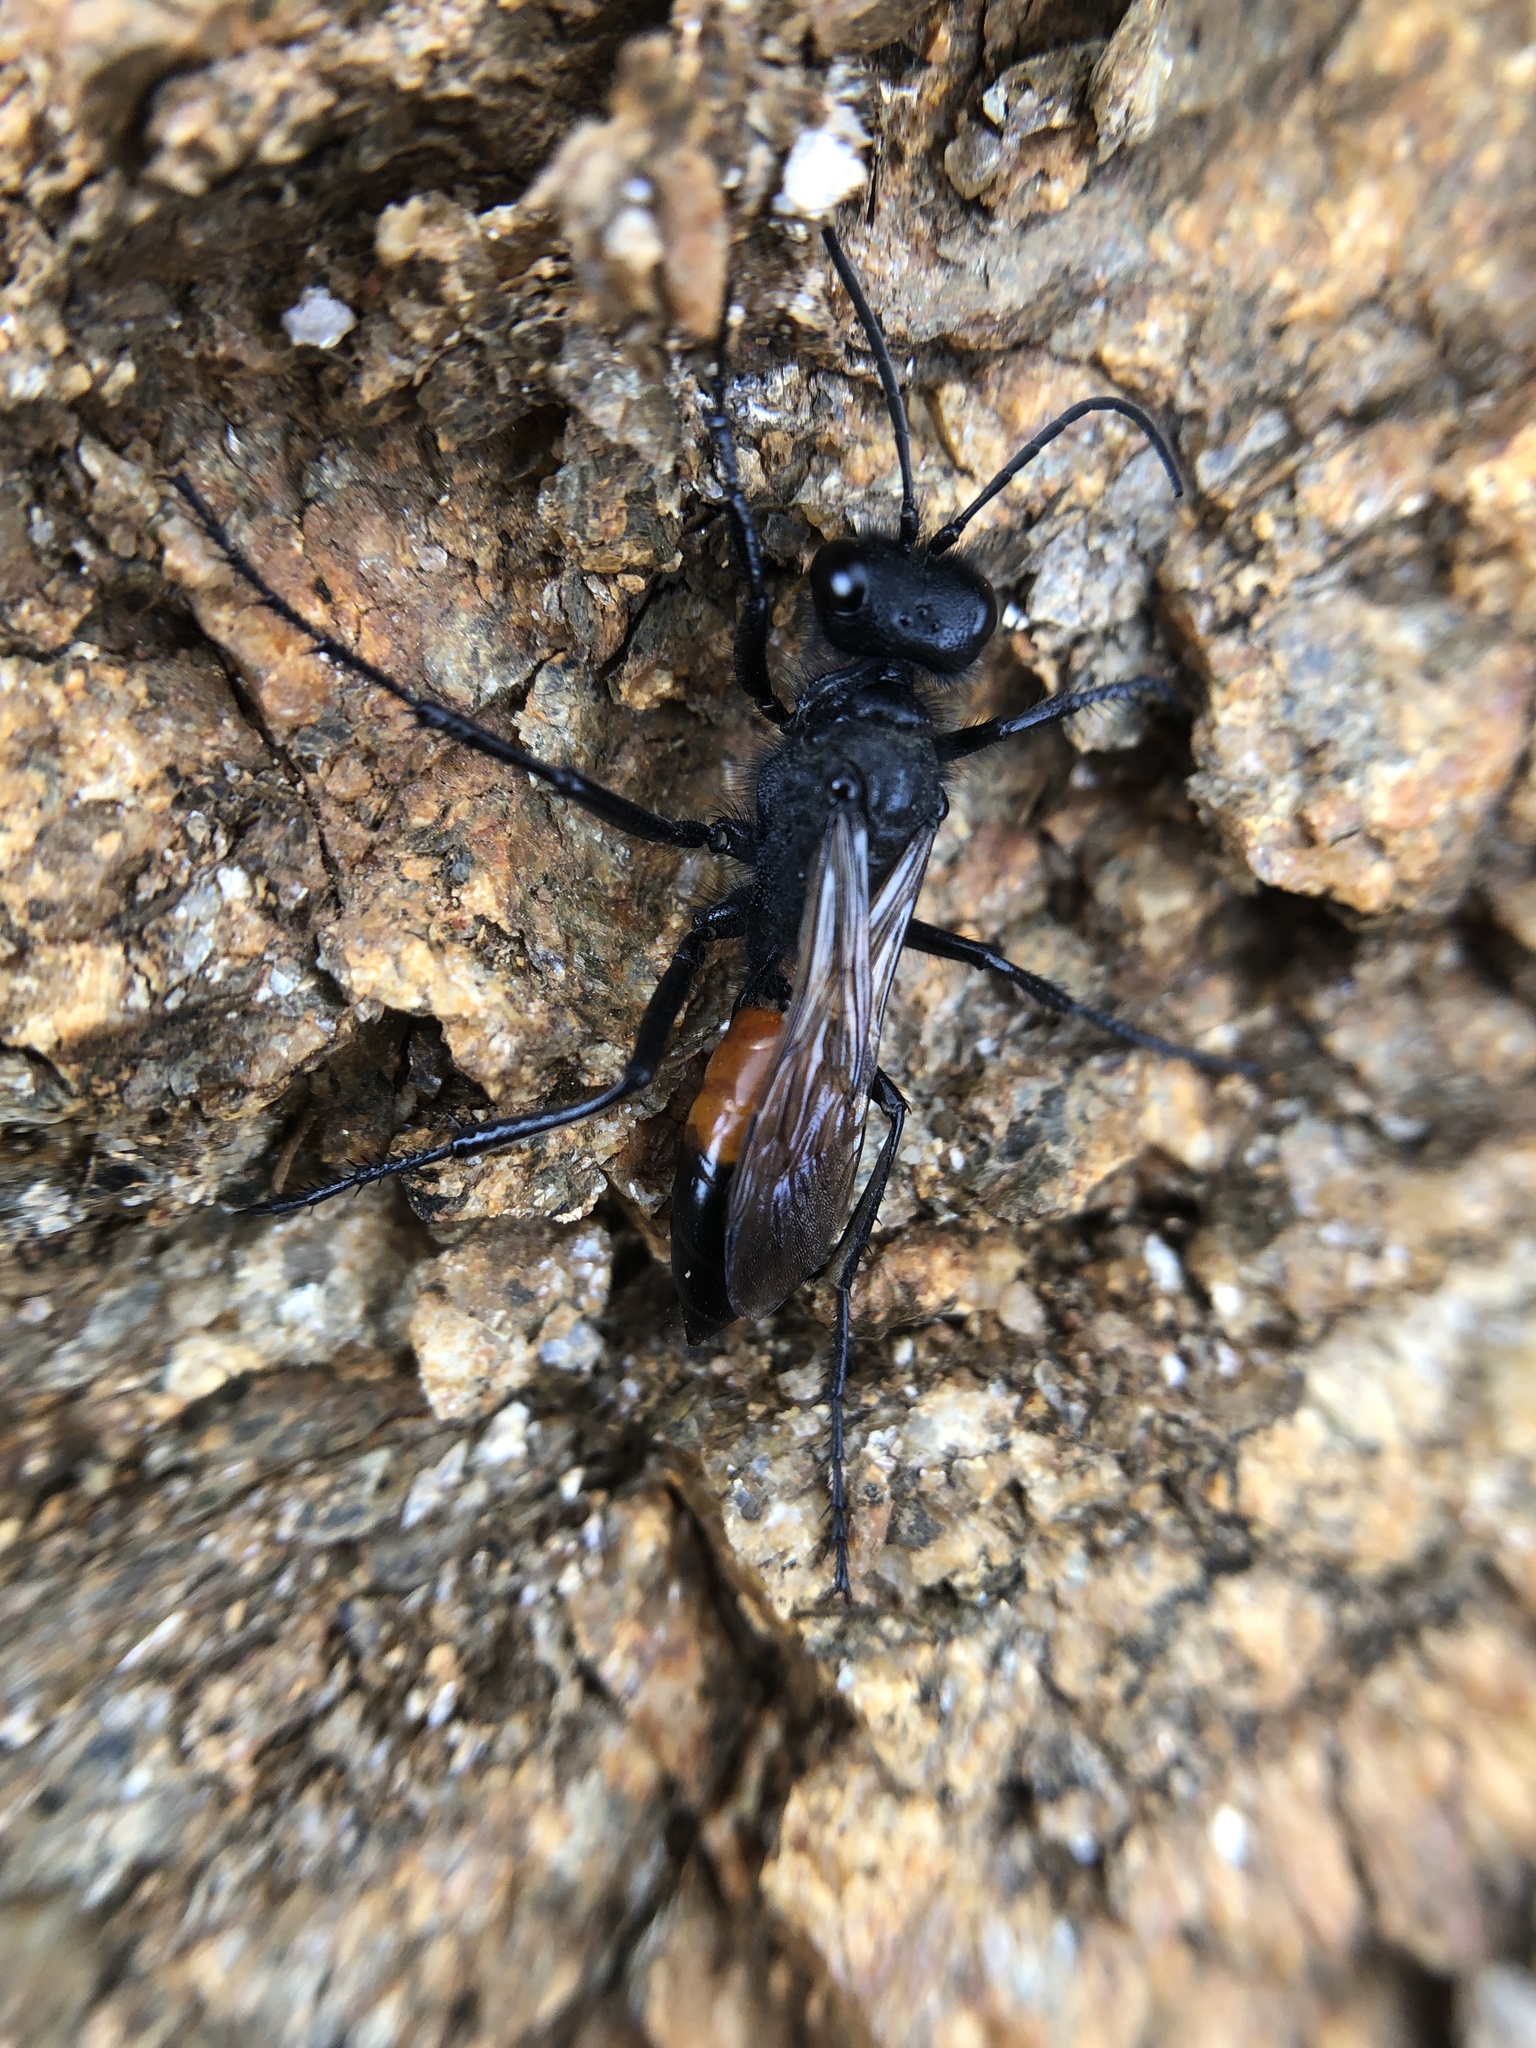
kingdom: Animalia
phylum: Arthropoda
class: Insecta
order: Hymenoptera
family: Sphecidae
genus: Podalonia
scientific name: Podalonia hirsuta
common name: Hairy sand wasp
